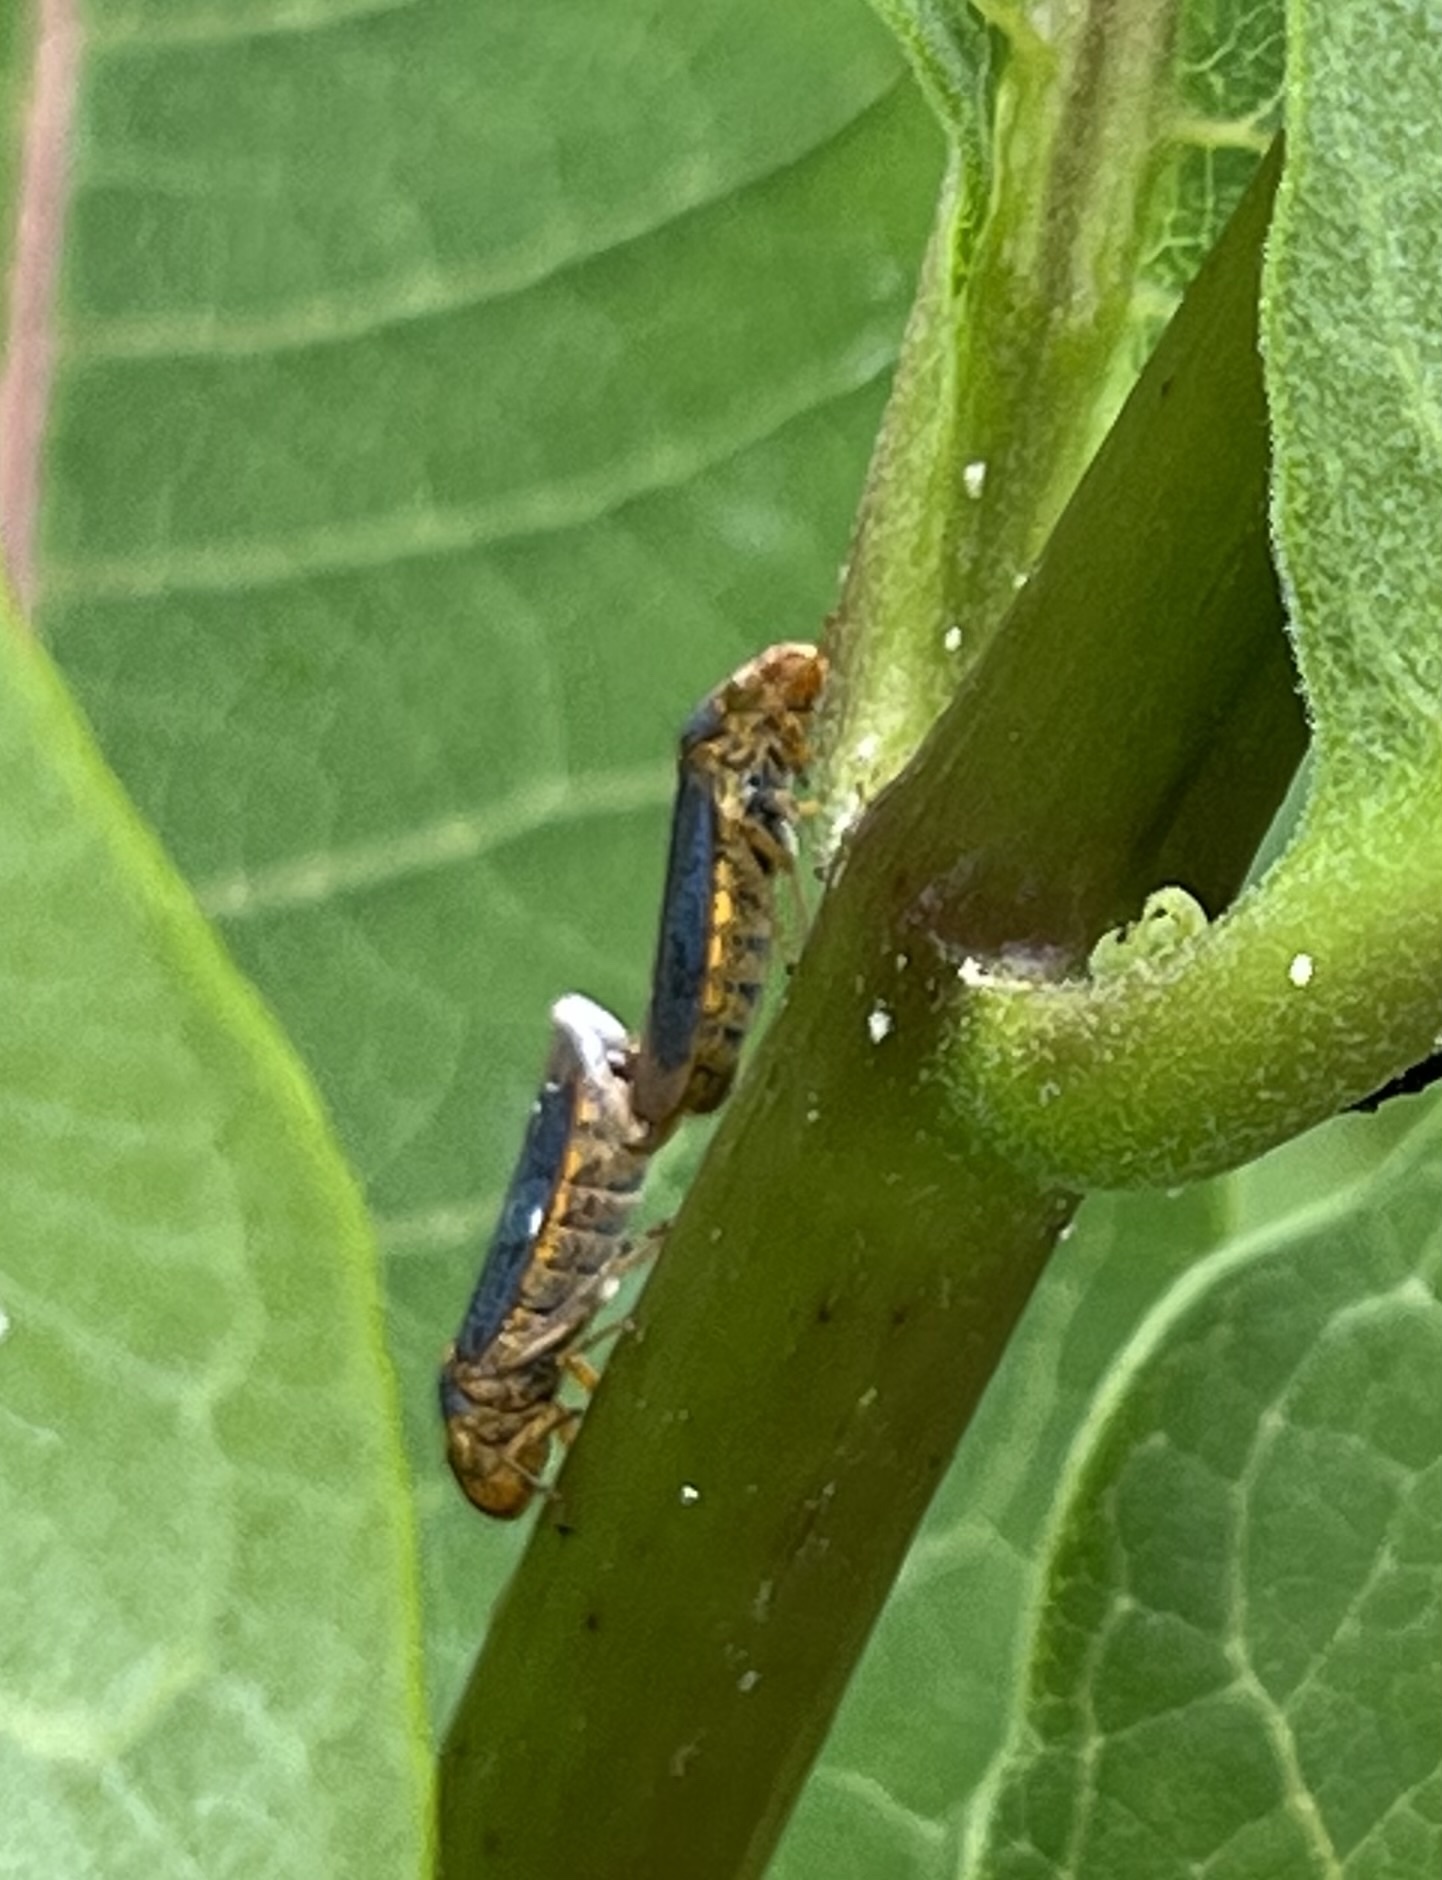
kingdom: Animalia
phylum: Arthropoda
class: Insecta
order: Hemiptera
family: Cicadellidae
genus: Oncometopia
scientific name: Oncometopia orbona
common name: Broad-headed sharpshooter
